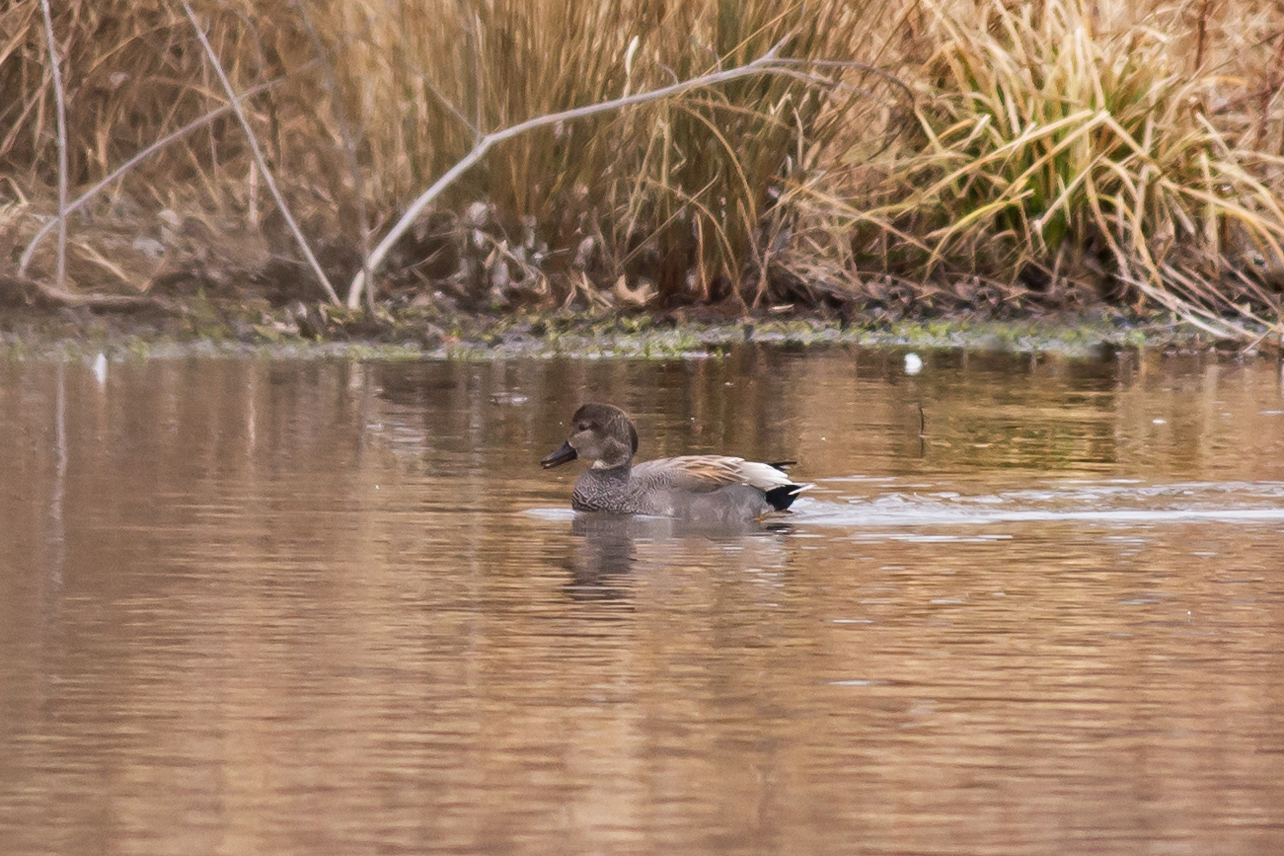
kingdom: Animalia
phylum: Chordata
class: Aves
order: Anseriformes
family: Anatidae
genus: Mareca
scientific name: Mareca strepera
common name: Gadwall
